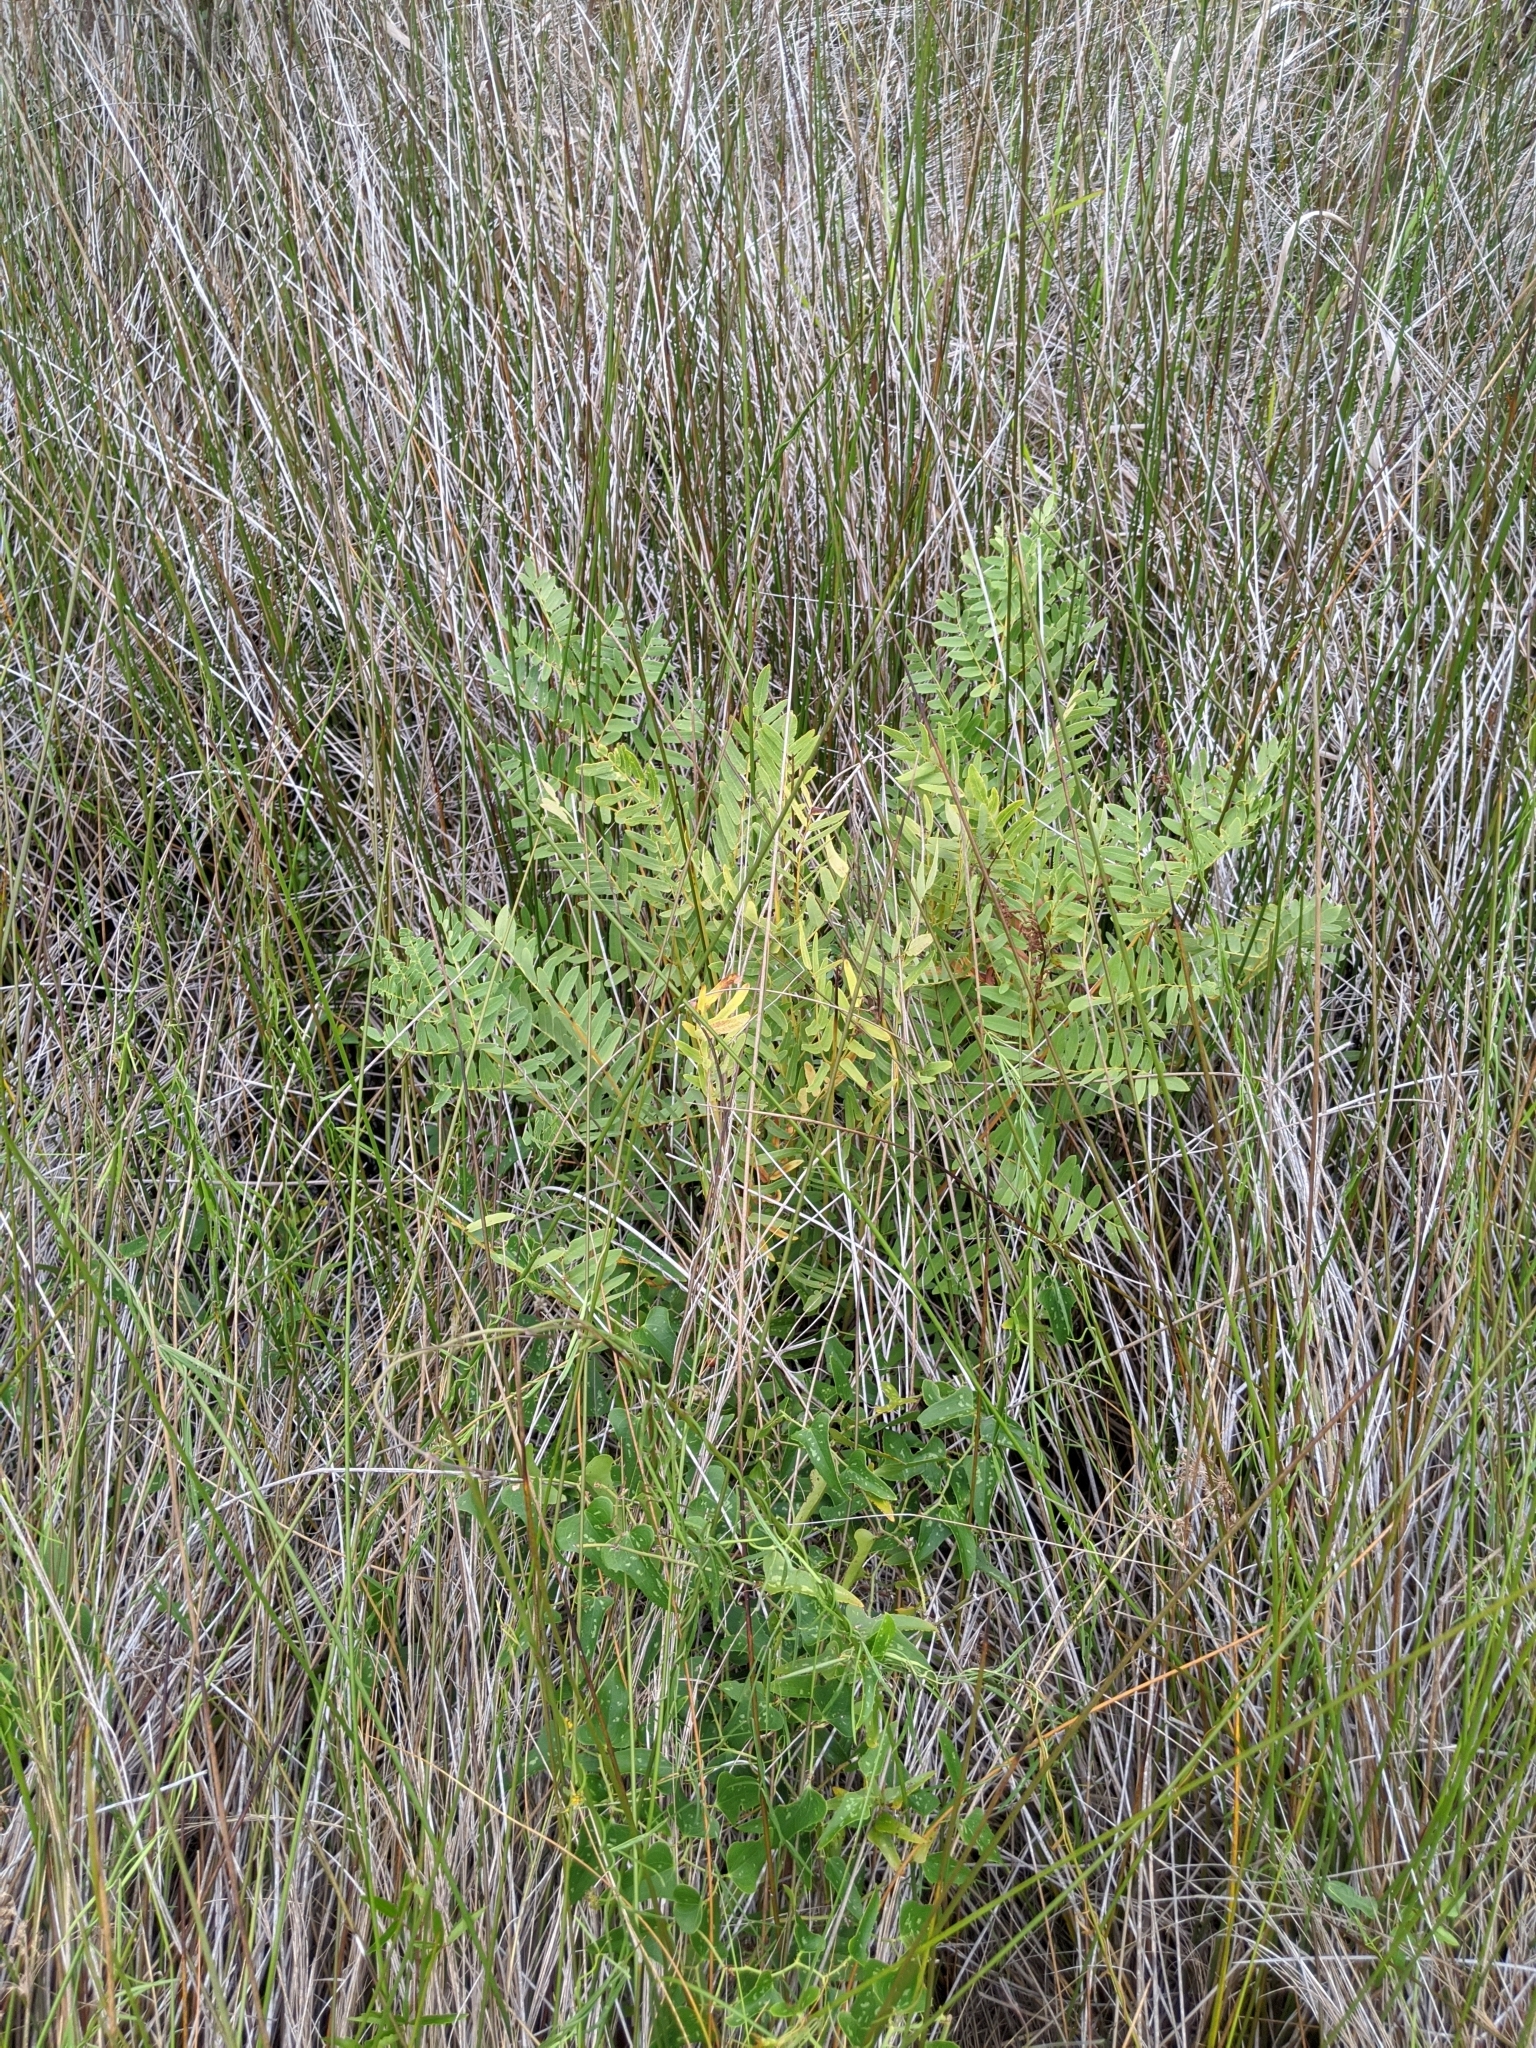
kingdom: Plantae
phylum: Tracheophyta
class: Polypodiopsida
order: Osmundales
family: Osmundaceae
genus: Osmunda
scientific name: Osmunda spectabilis
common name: American royal fern
